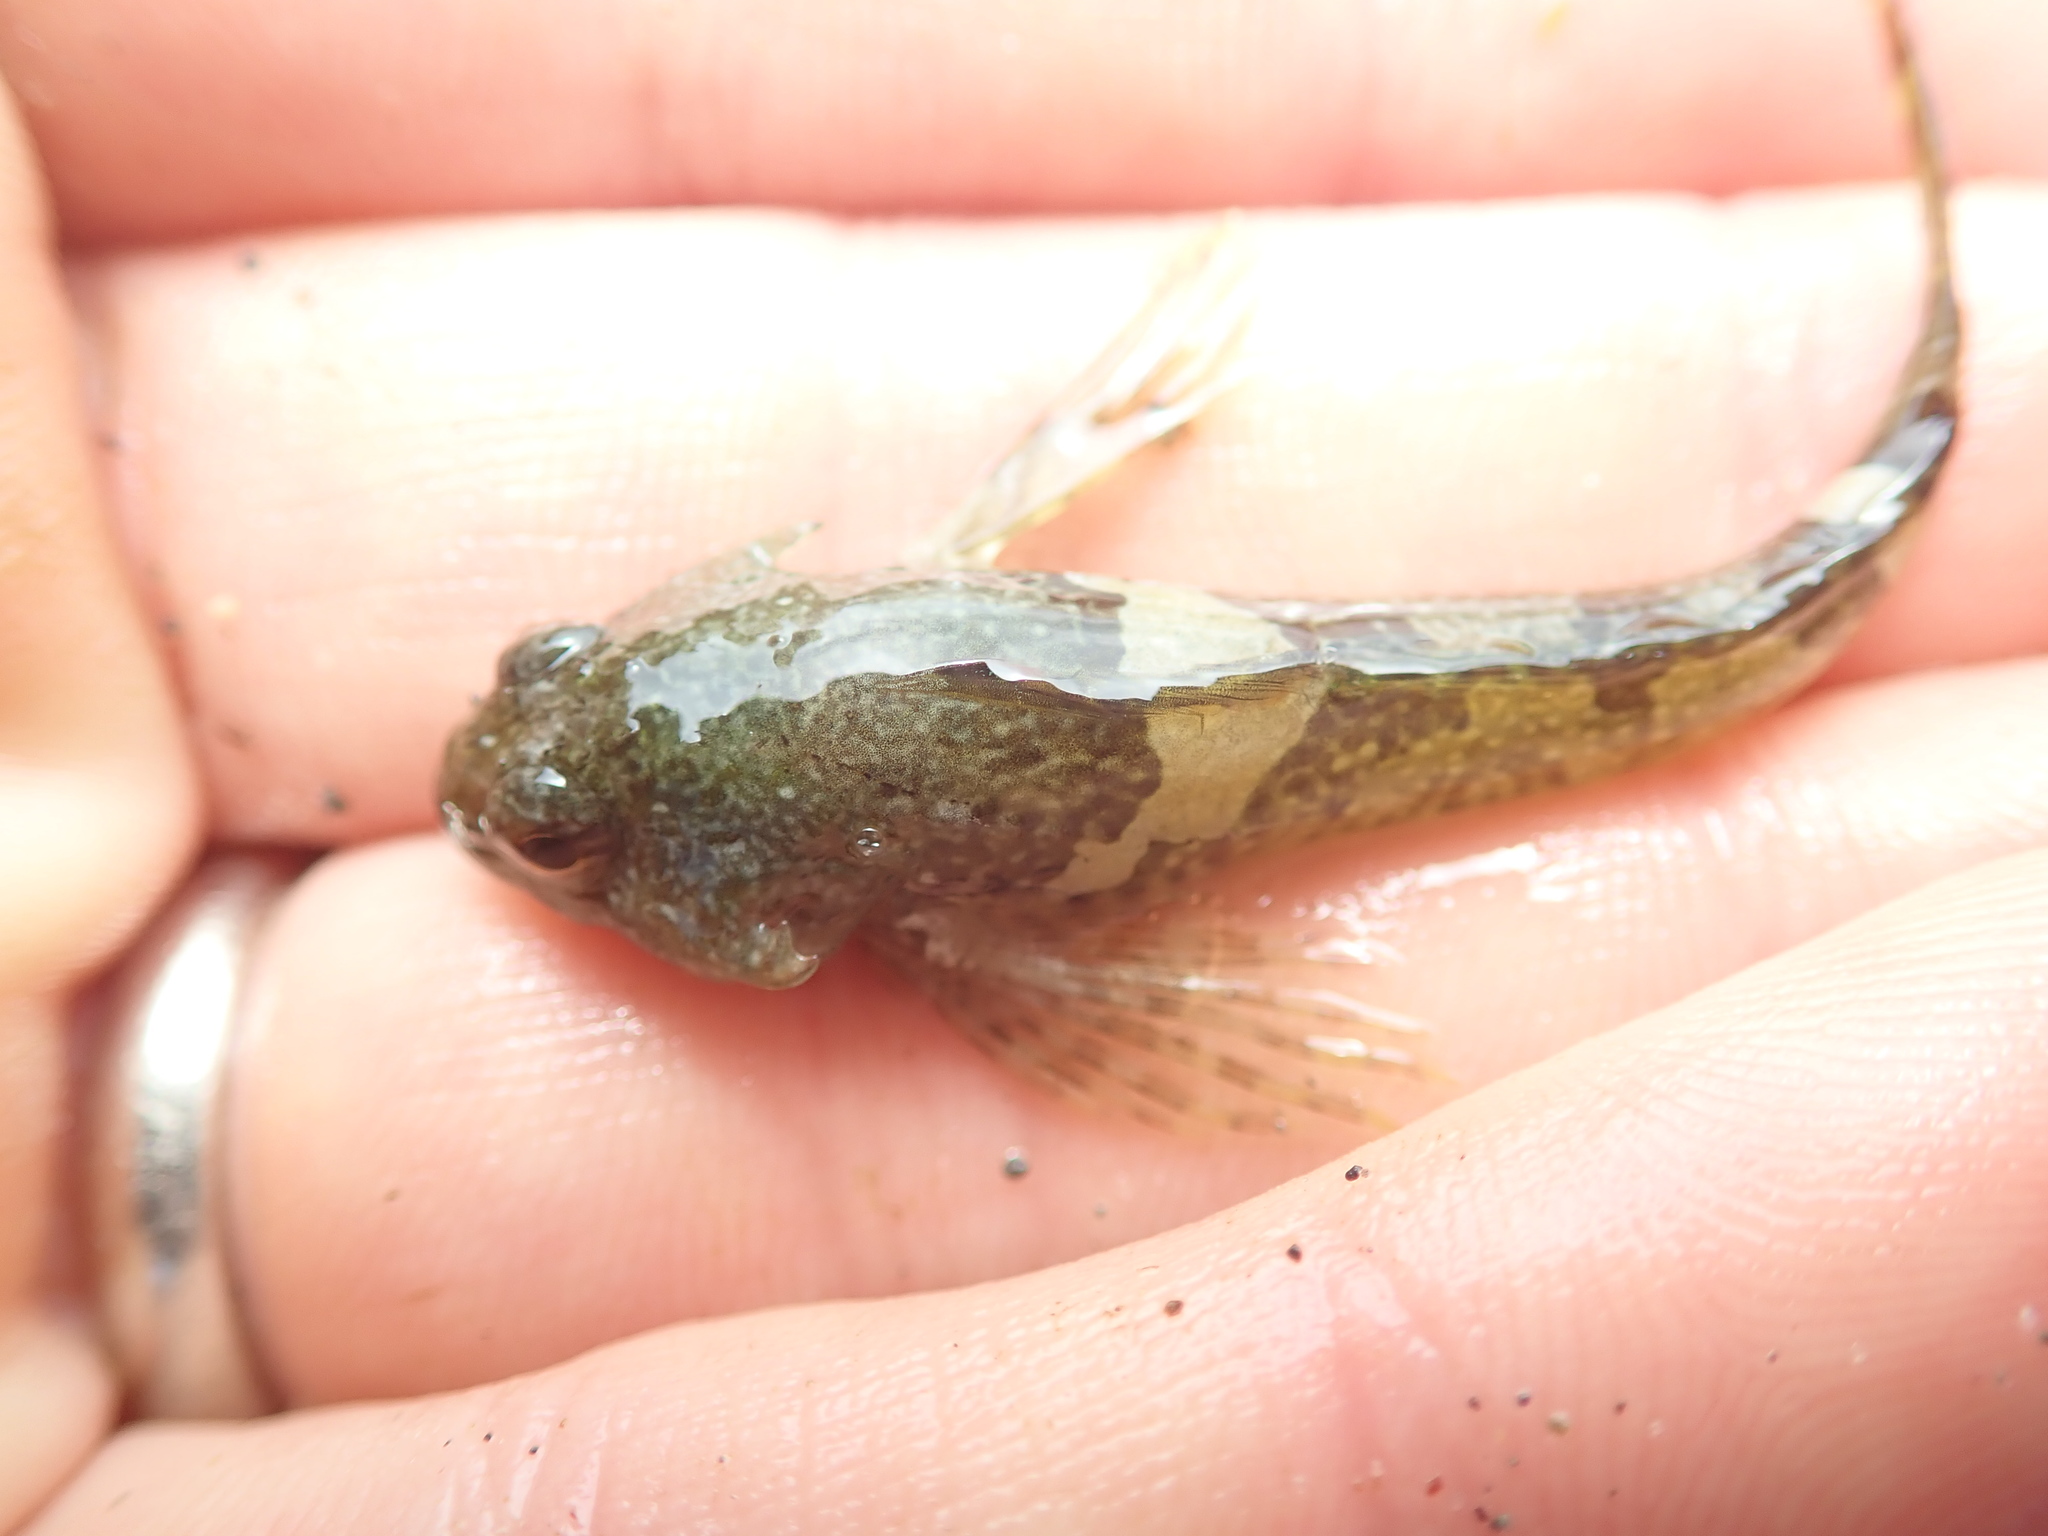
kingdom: Animalia
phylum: Chordata
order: Scorpaeniformes
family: Cottidae
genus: Oligocottus
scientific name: Oligocottus maculosus
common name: Tidepool sculpin
